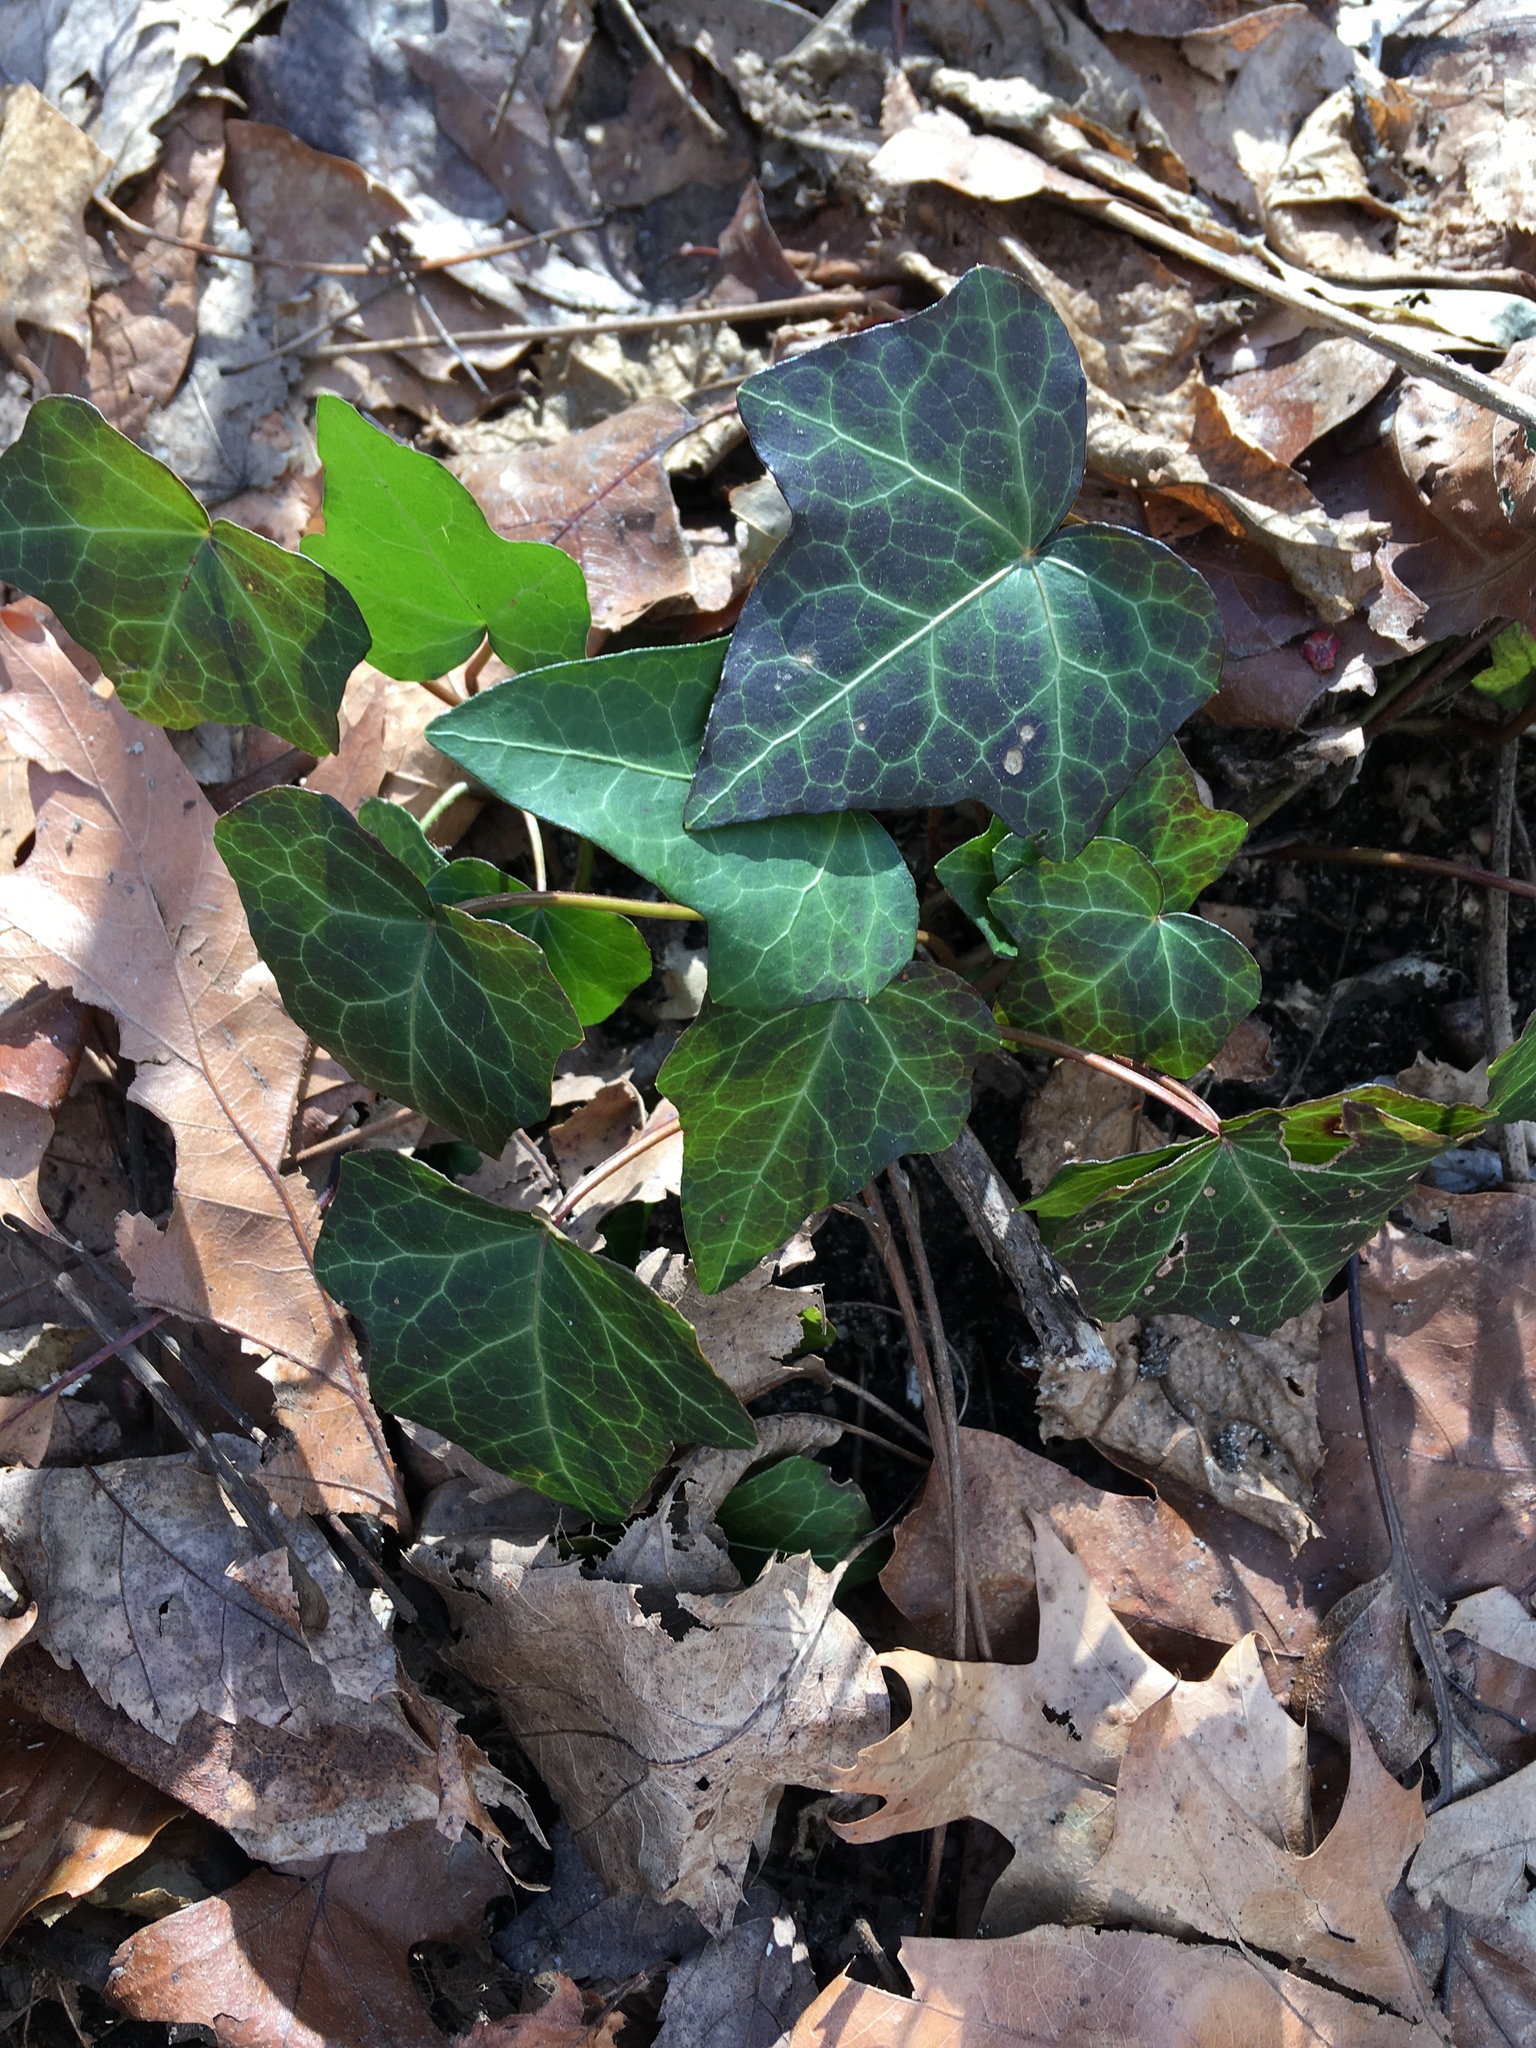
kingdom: Plantae
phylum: Tracheophyta
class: Magnoliopsida
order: Apiales
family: Araliaceae
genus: Hedera
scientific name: Hedera helix
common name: Ivy
